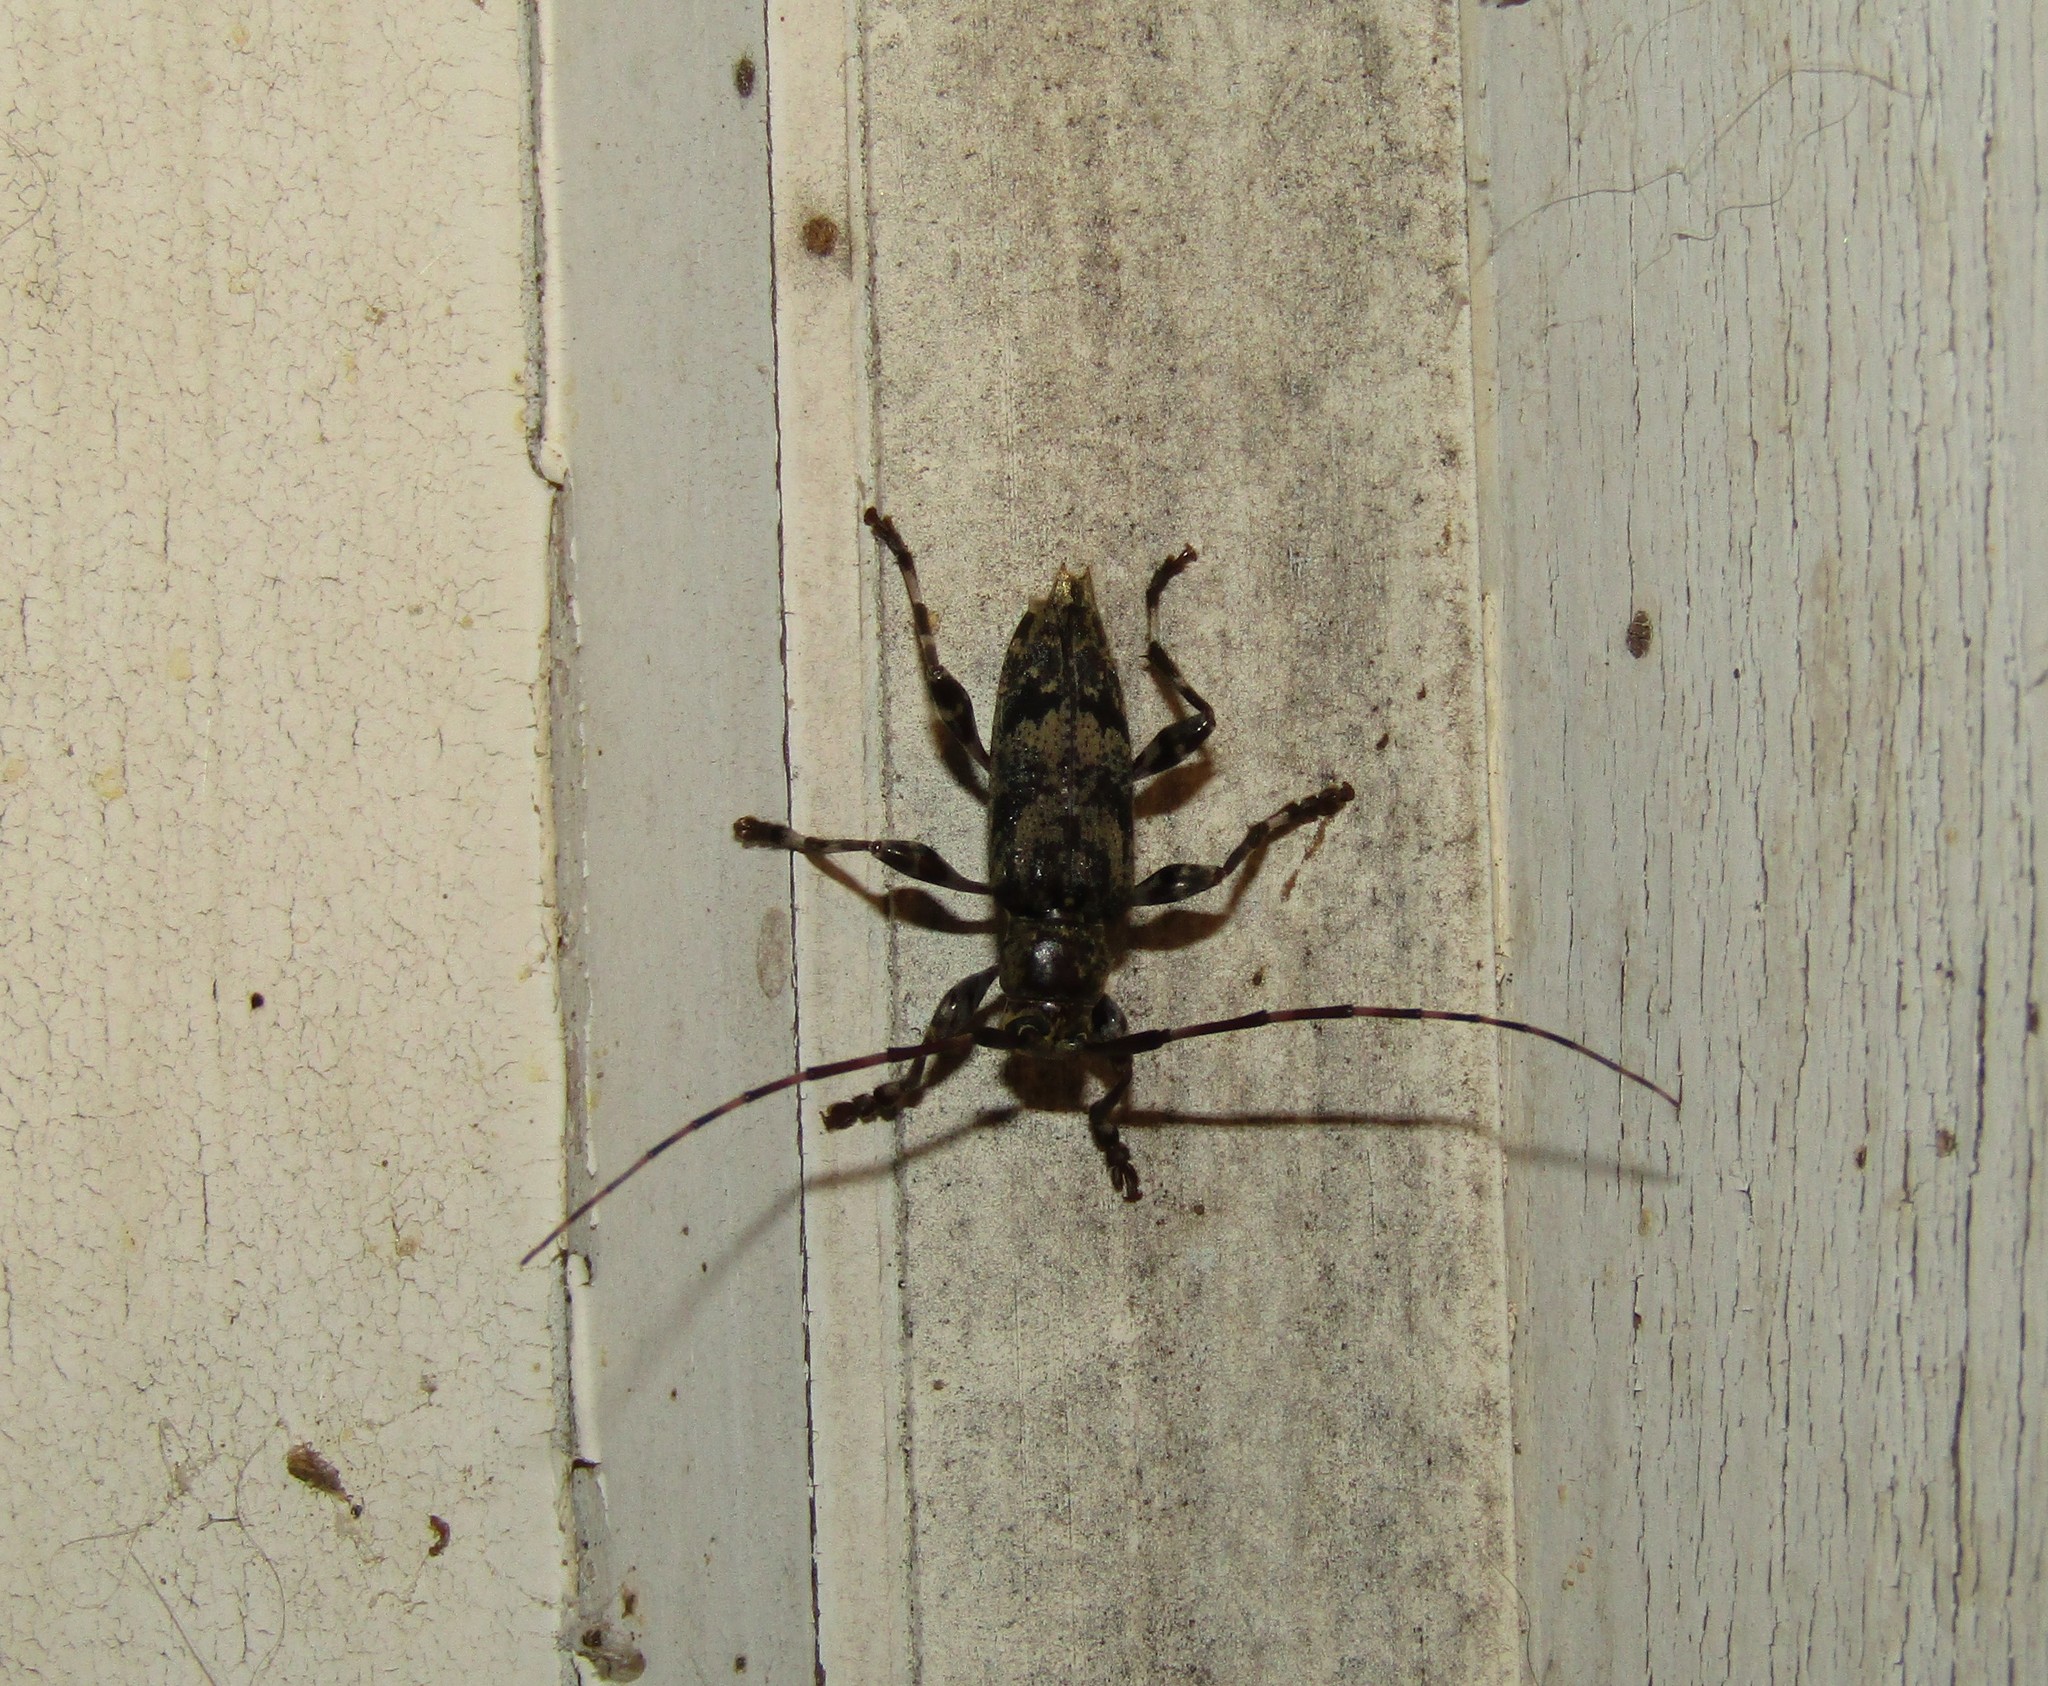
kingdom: Animalia
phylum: Arthropoda
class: Insecta
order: Coleoptera
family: Cerambycidae
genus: Graphisurus
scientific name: Graphisurus fasciatus
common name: Banded graphisurus
